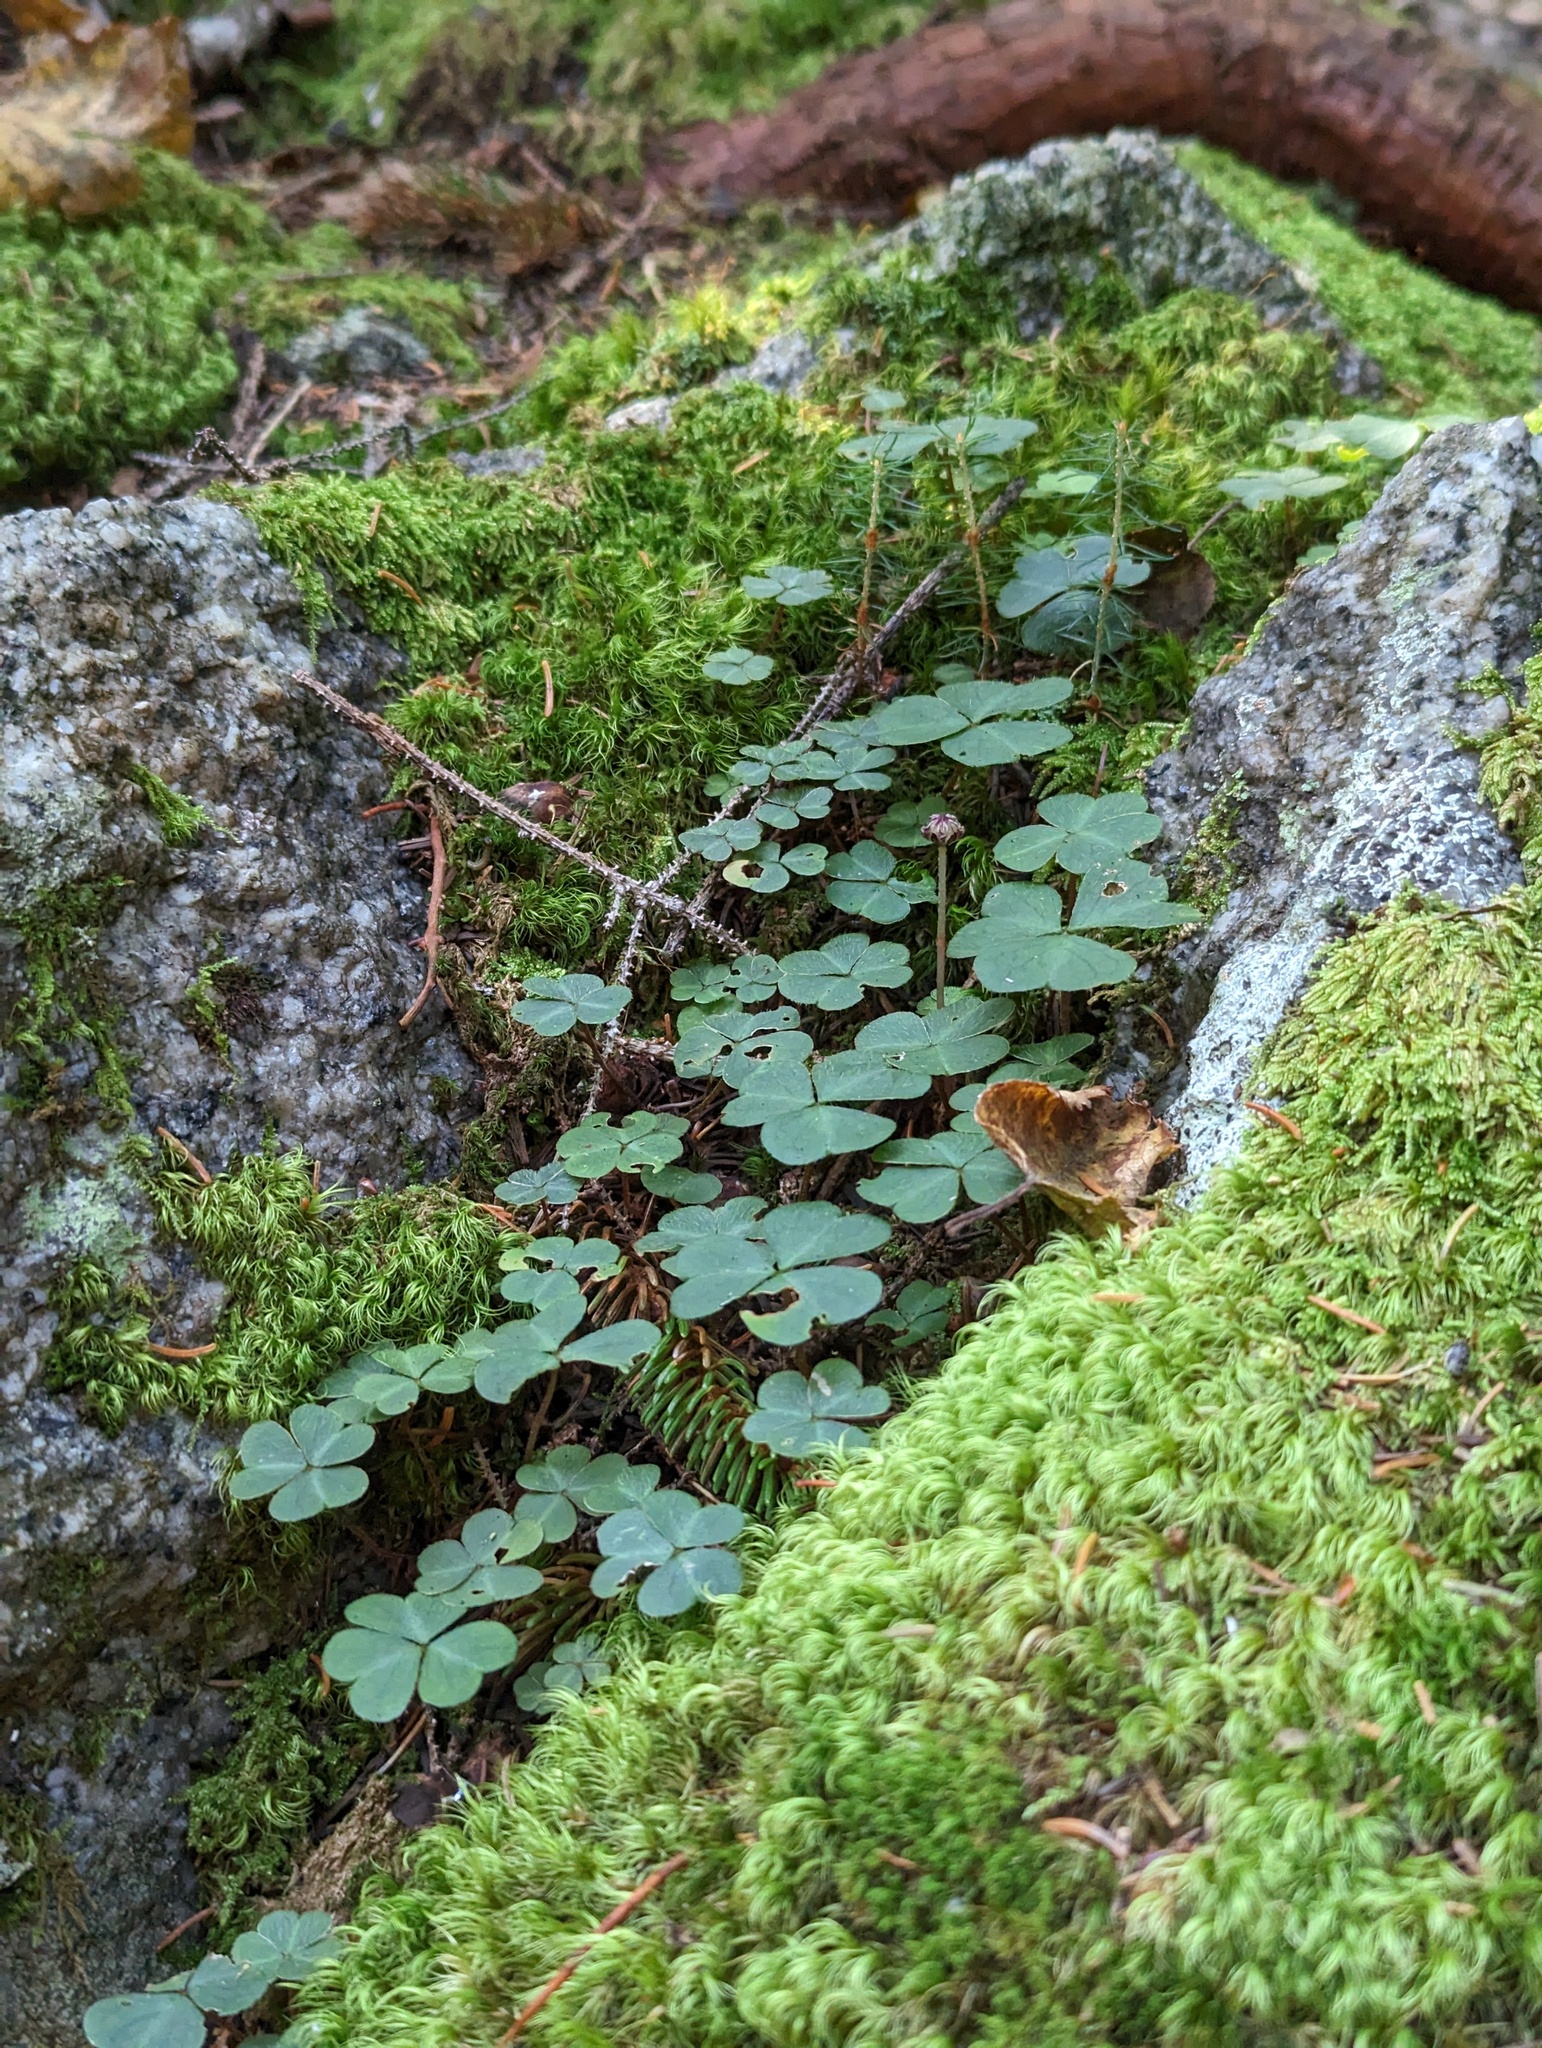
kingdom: Plantae
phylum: Tracheophyta
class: Magnoliopsida
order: Oxalidales
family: Oxalidaceae
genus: Oxalis
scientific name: Oxalis montana
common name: American wood-sorrel
